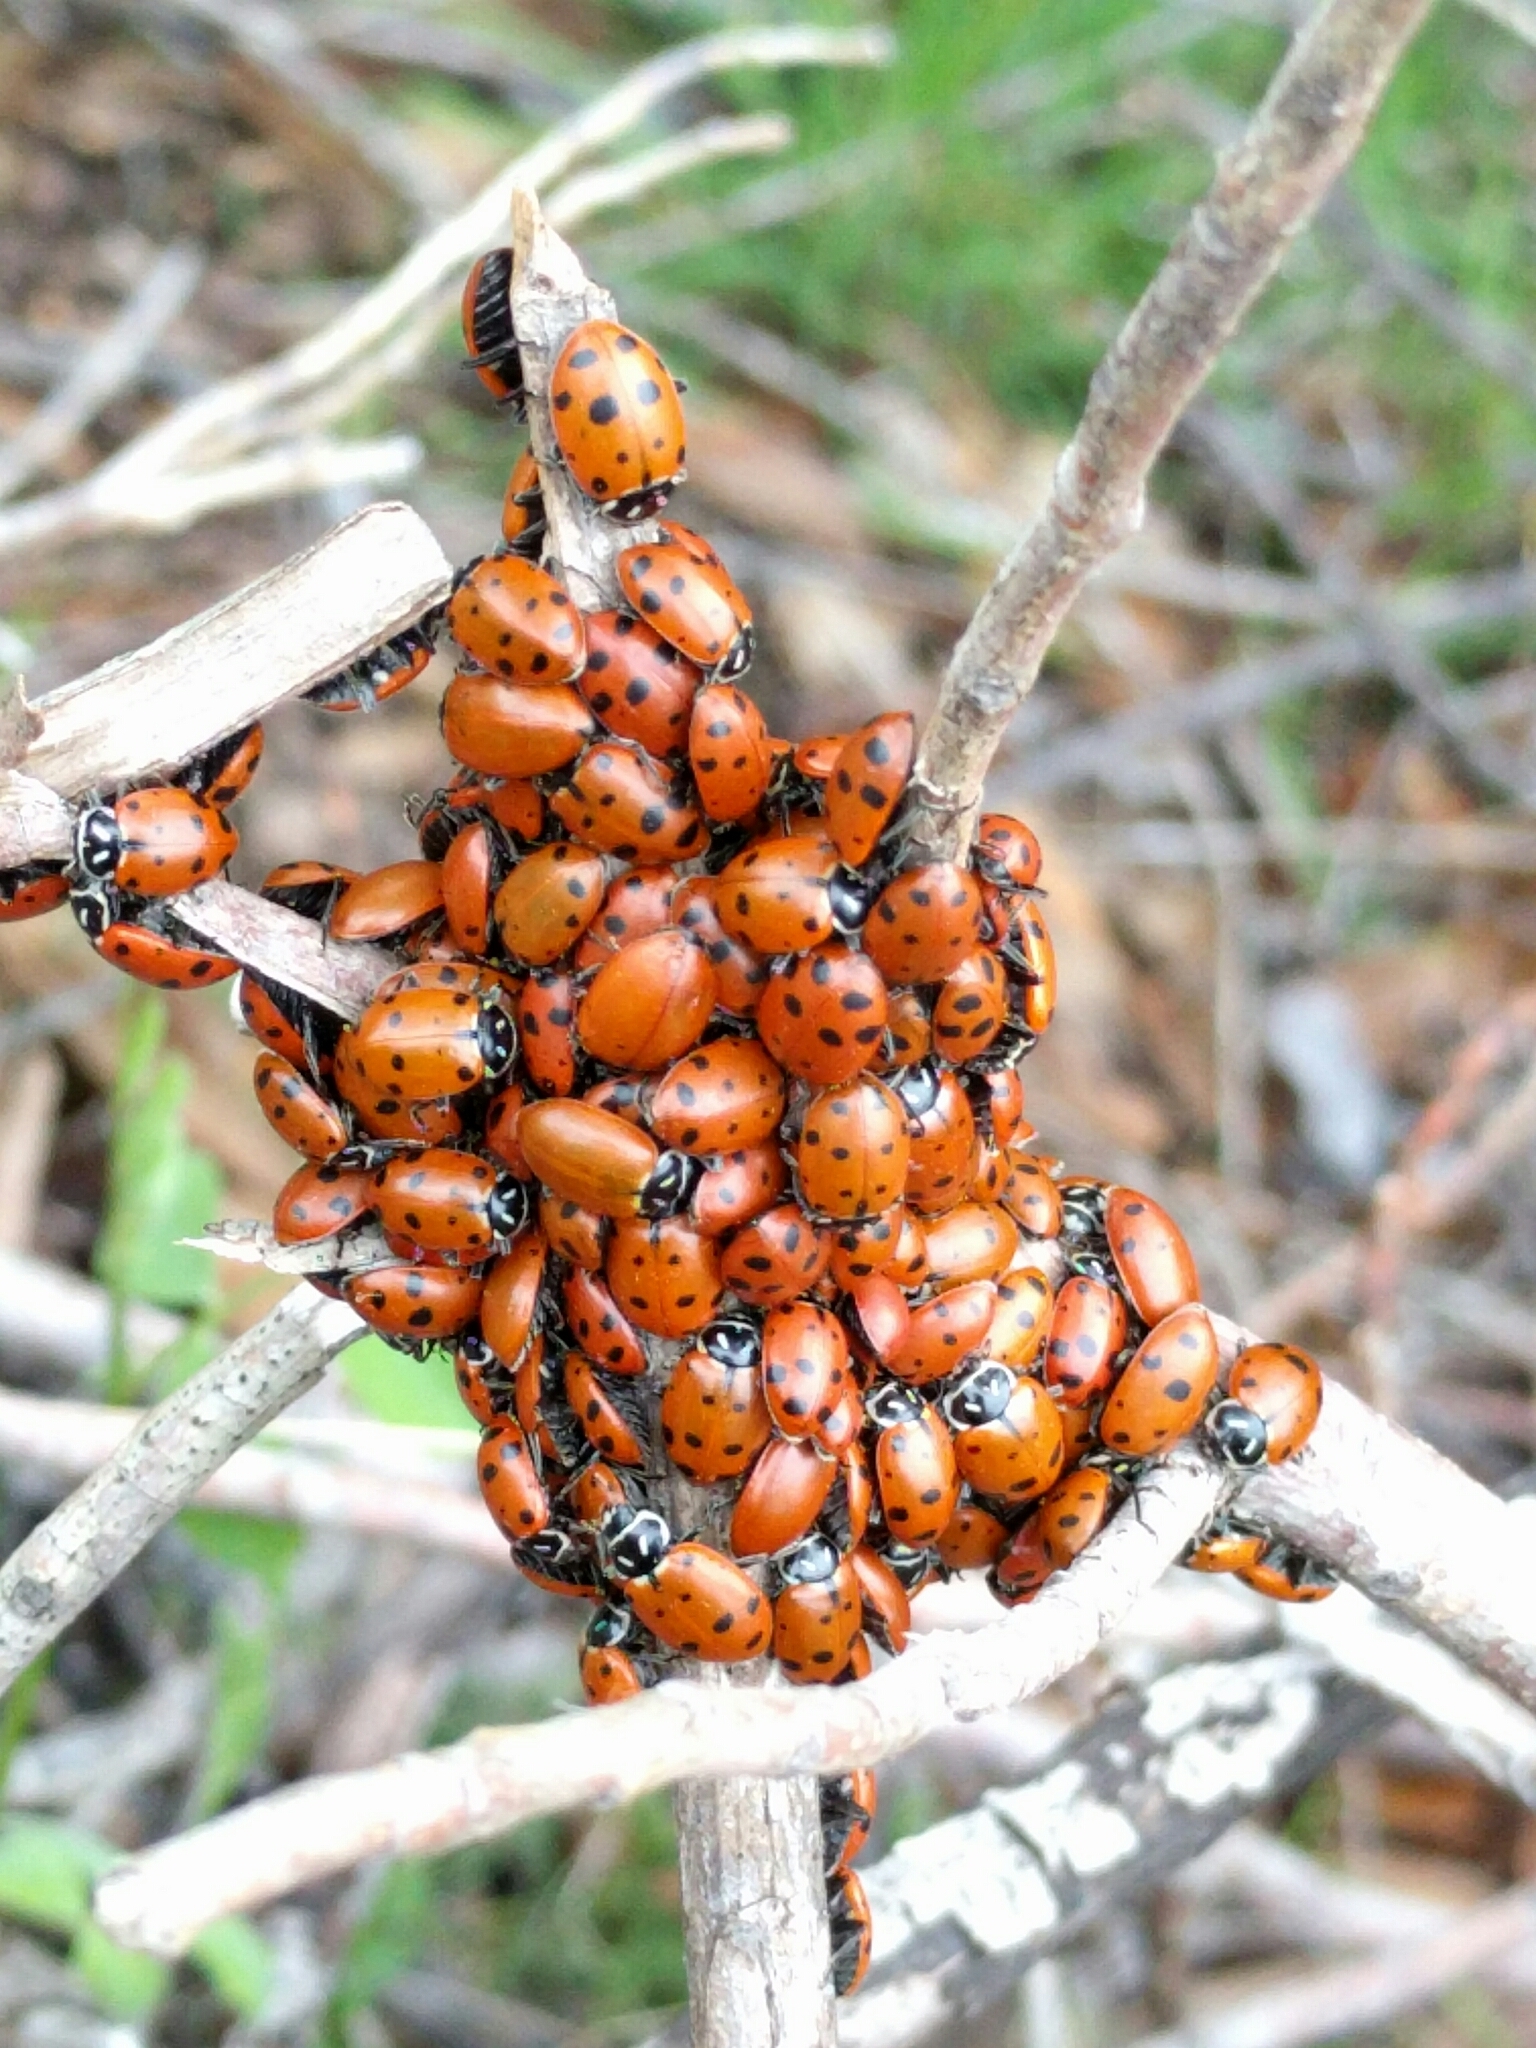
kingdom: Animalia
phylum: Arthropoda
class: Insecta
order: Coleoptera
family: Coccinellidae
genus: Hippodamia
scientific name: Hippodamia convergens
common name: Convergent lady beetle
